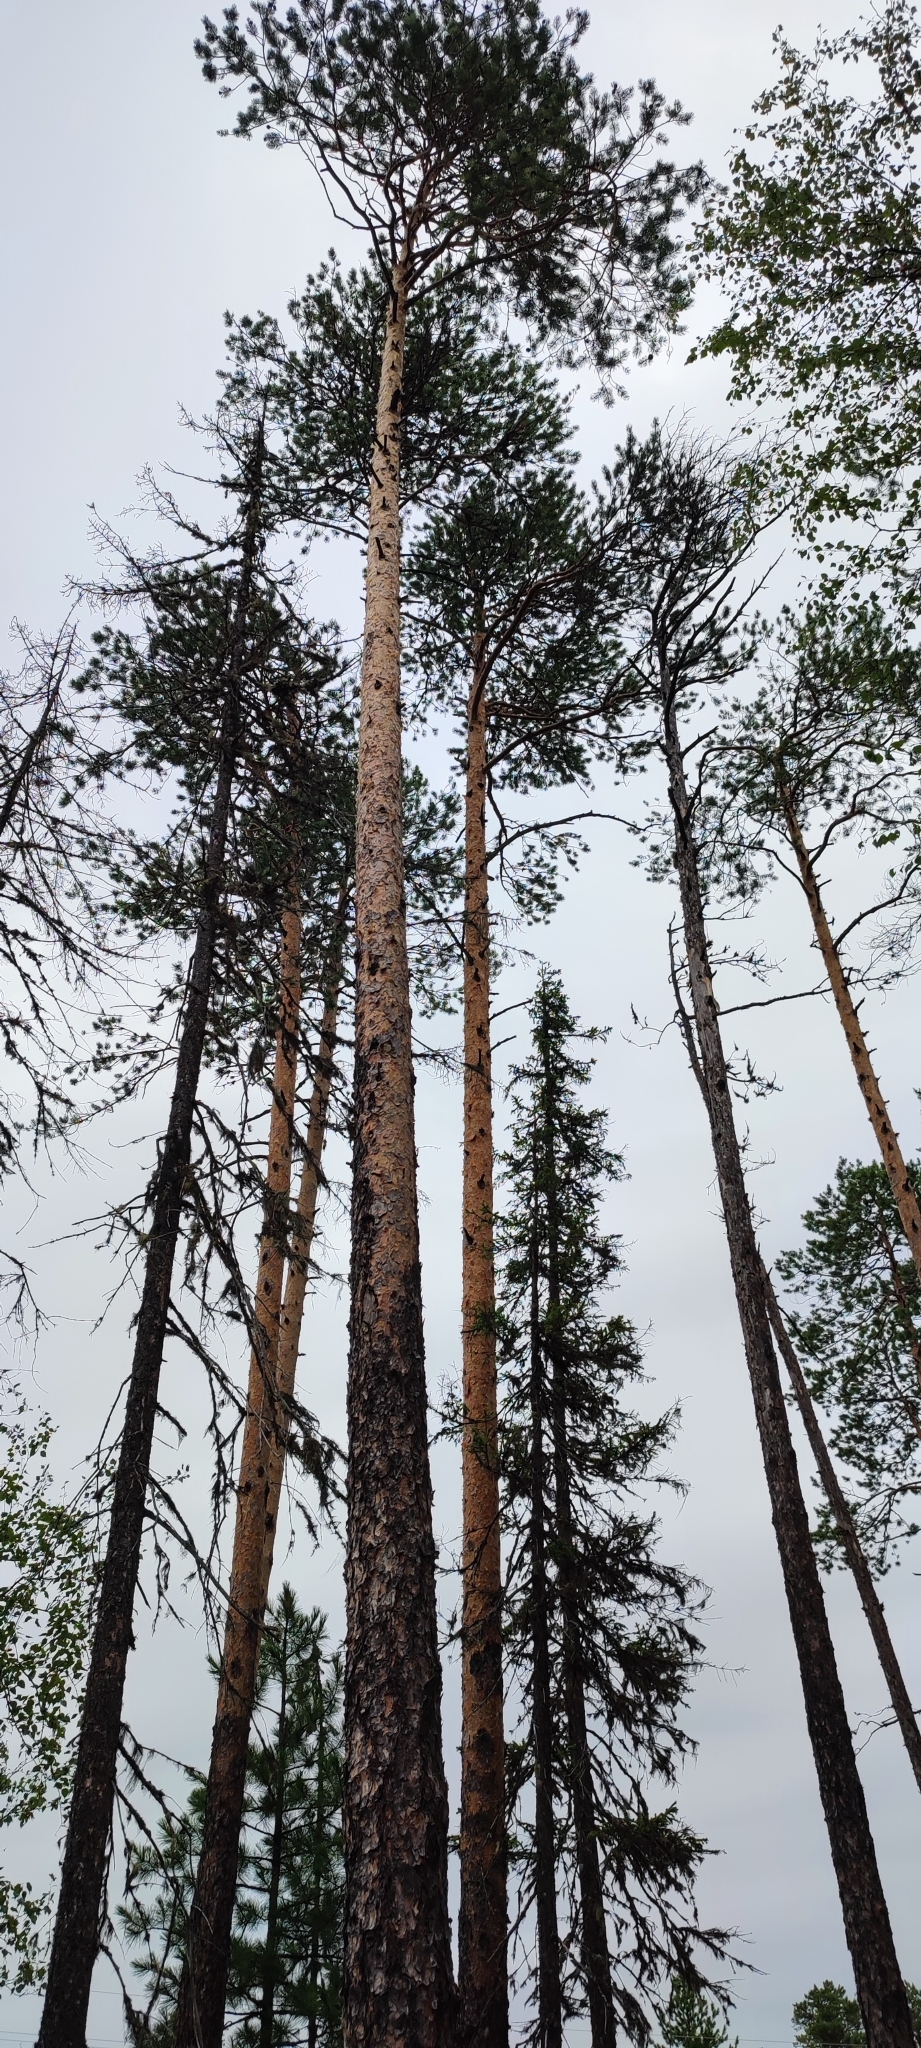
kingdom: Plantae
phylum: Tracheophyta
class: Pinopsida
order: Pinales
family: Pinaceae
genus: Pinus
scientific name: Pinus sylvestris
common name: Scots pine
